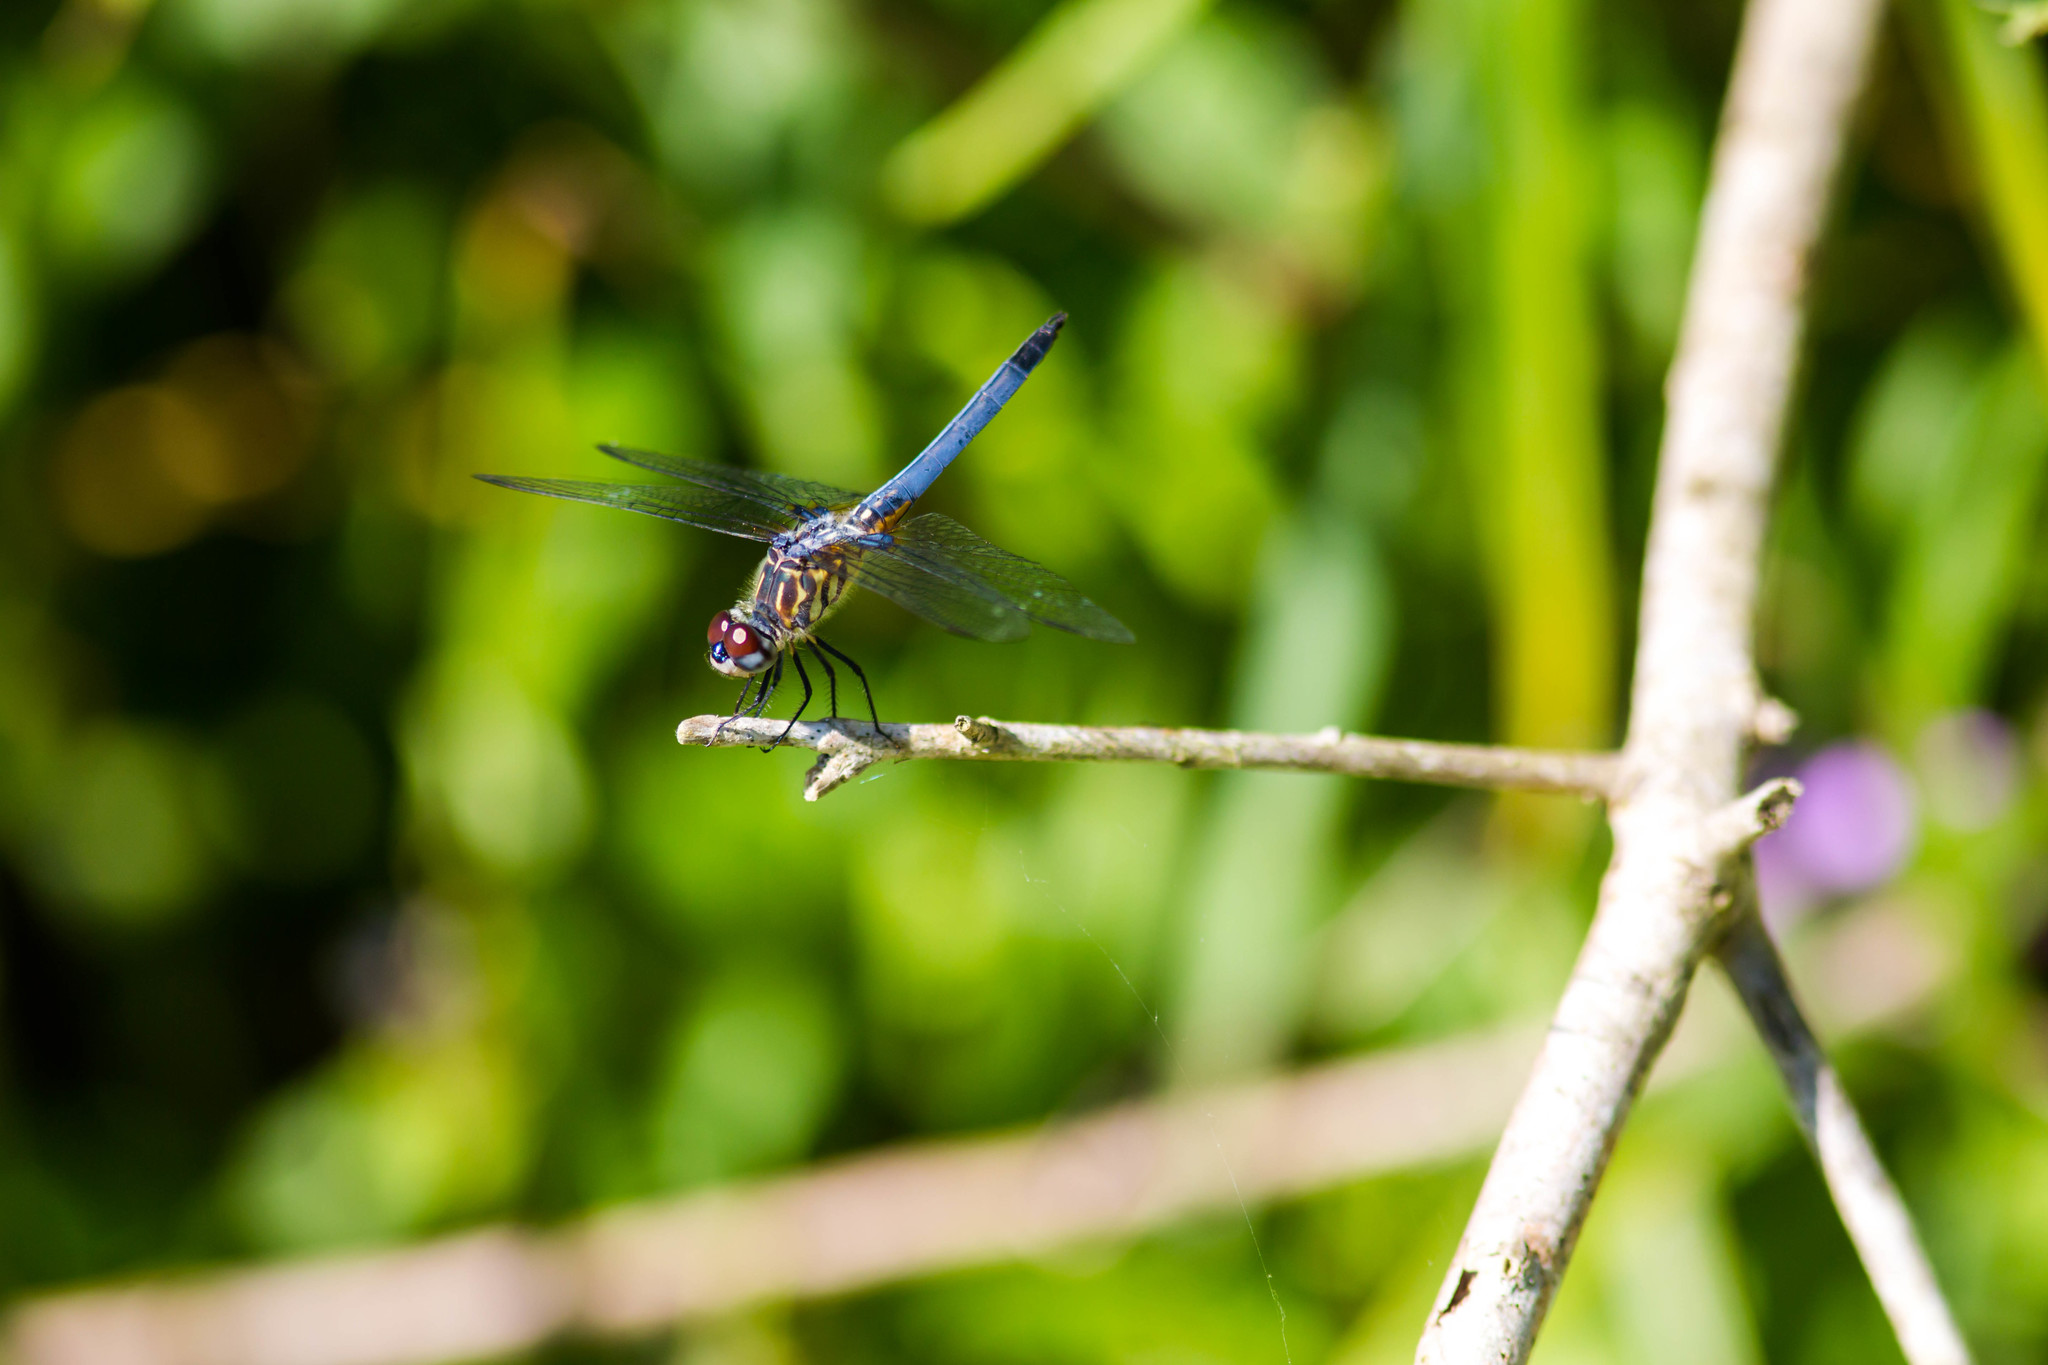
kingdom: Animalia
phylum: Arthropoda
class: Insecta
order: Odonata
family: Libellulidae
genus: Pachydiplax
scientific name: Pachydiplax longipennis
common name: Blue dasher
